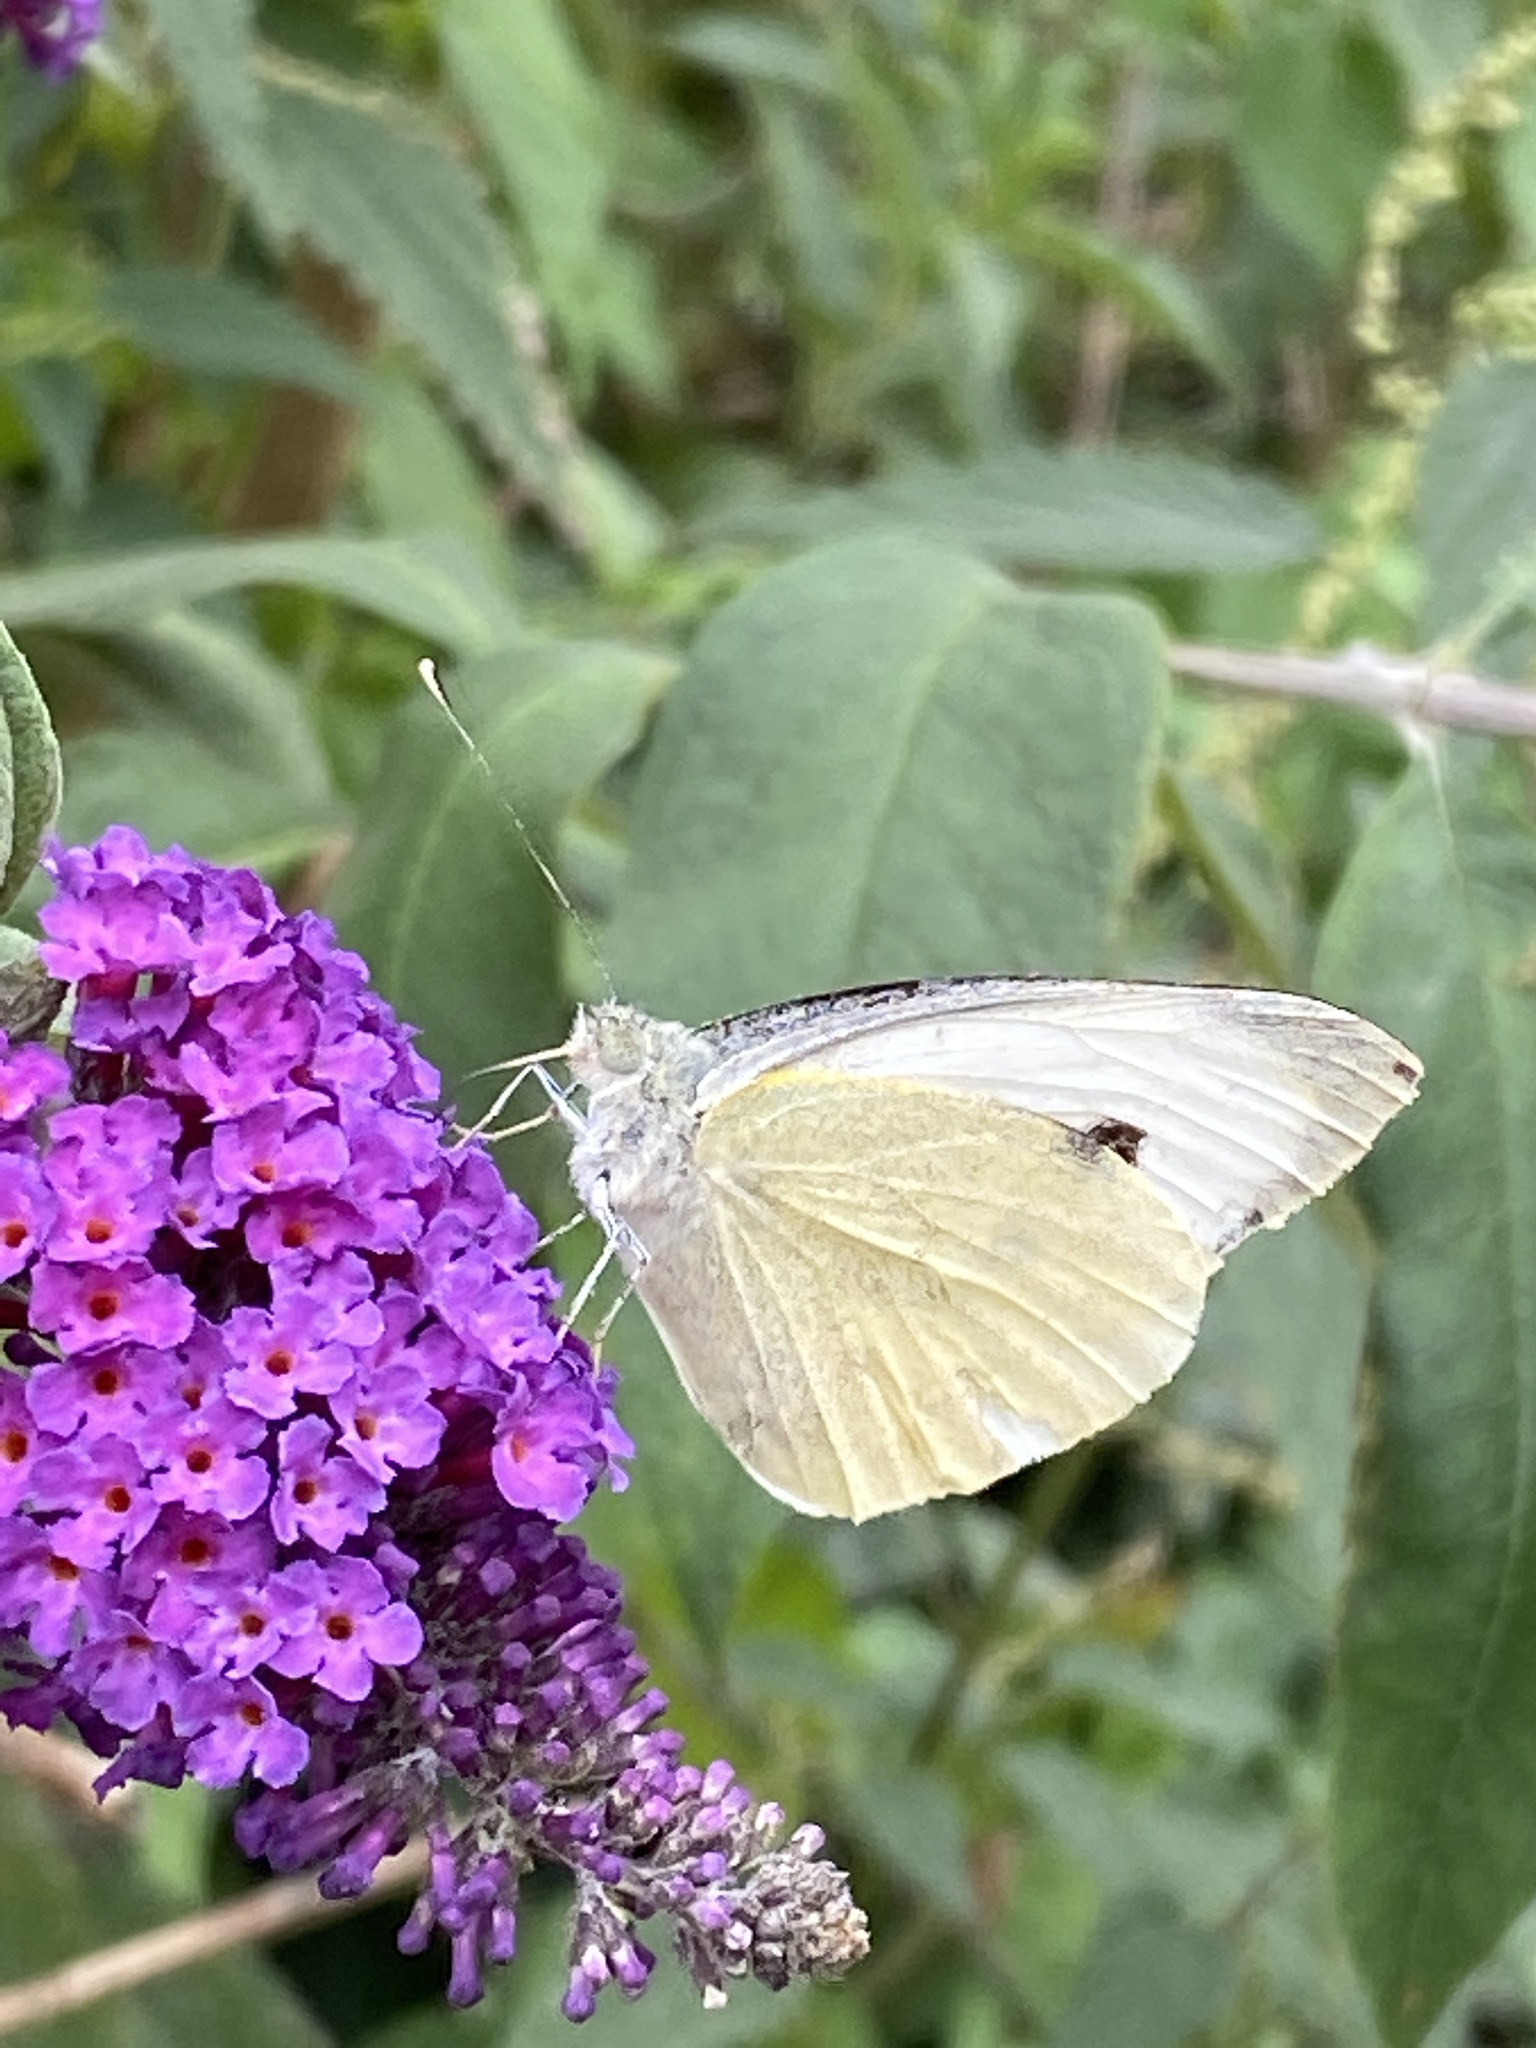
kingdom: Animalia
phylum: Arthropoda
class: Insecta
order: Lepidoptera
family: Pieridae
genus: Pieris
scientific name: Pieris brassicae
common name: Large white
